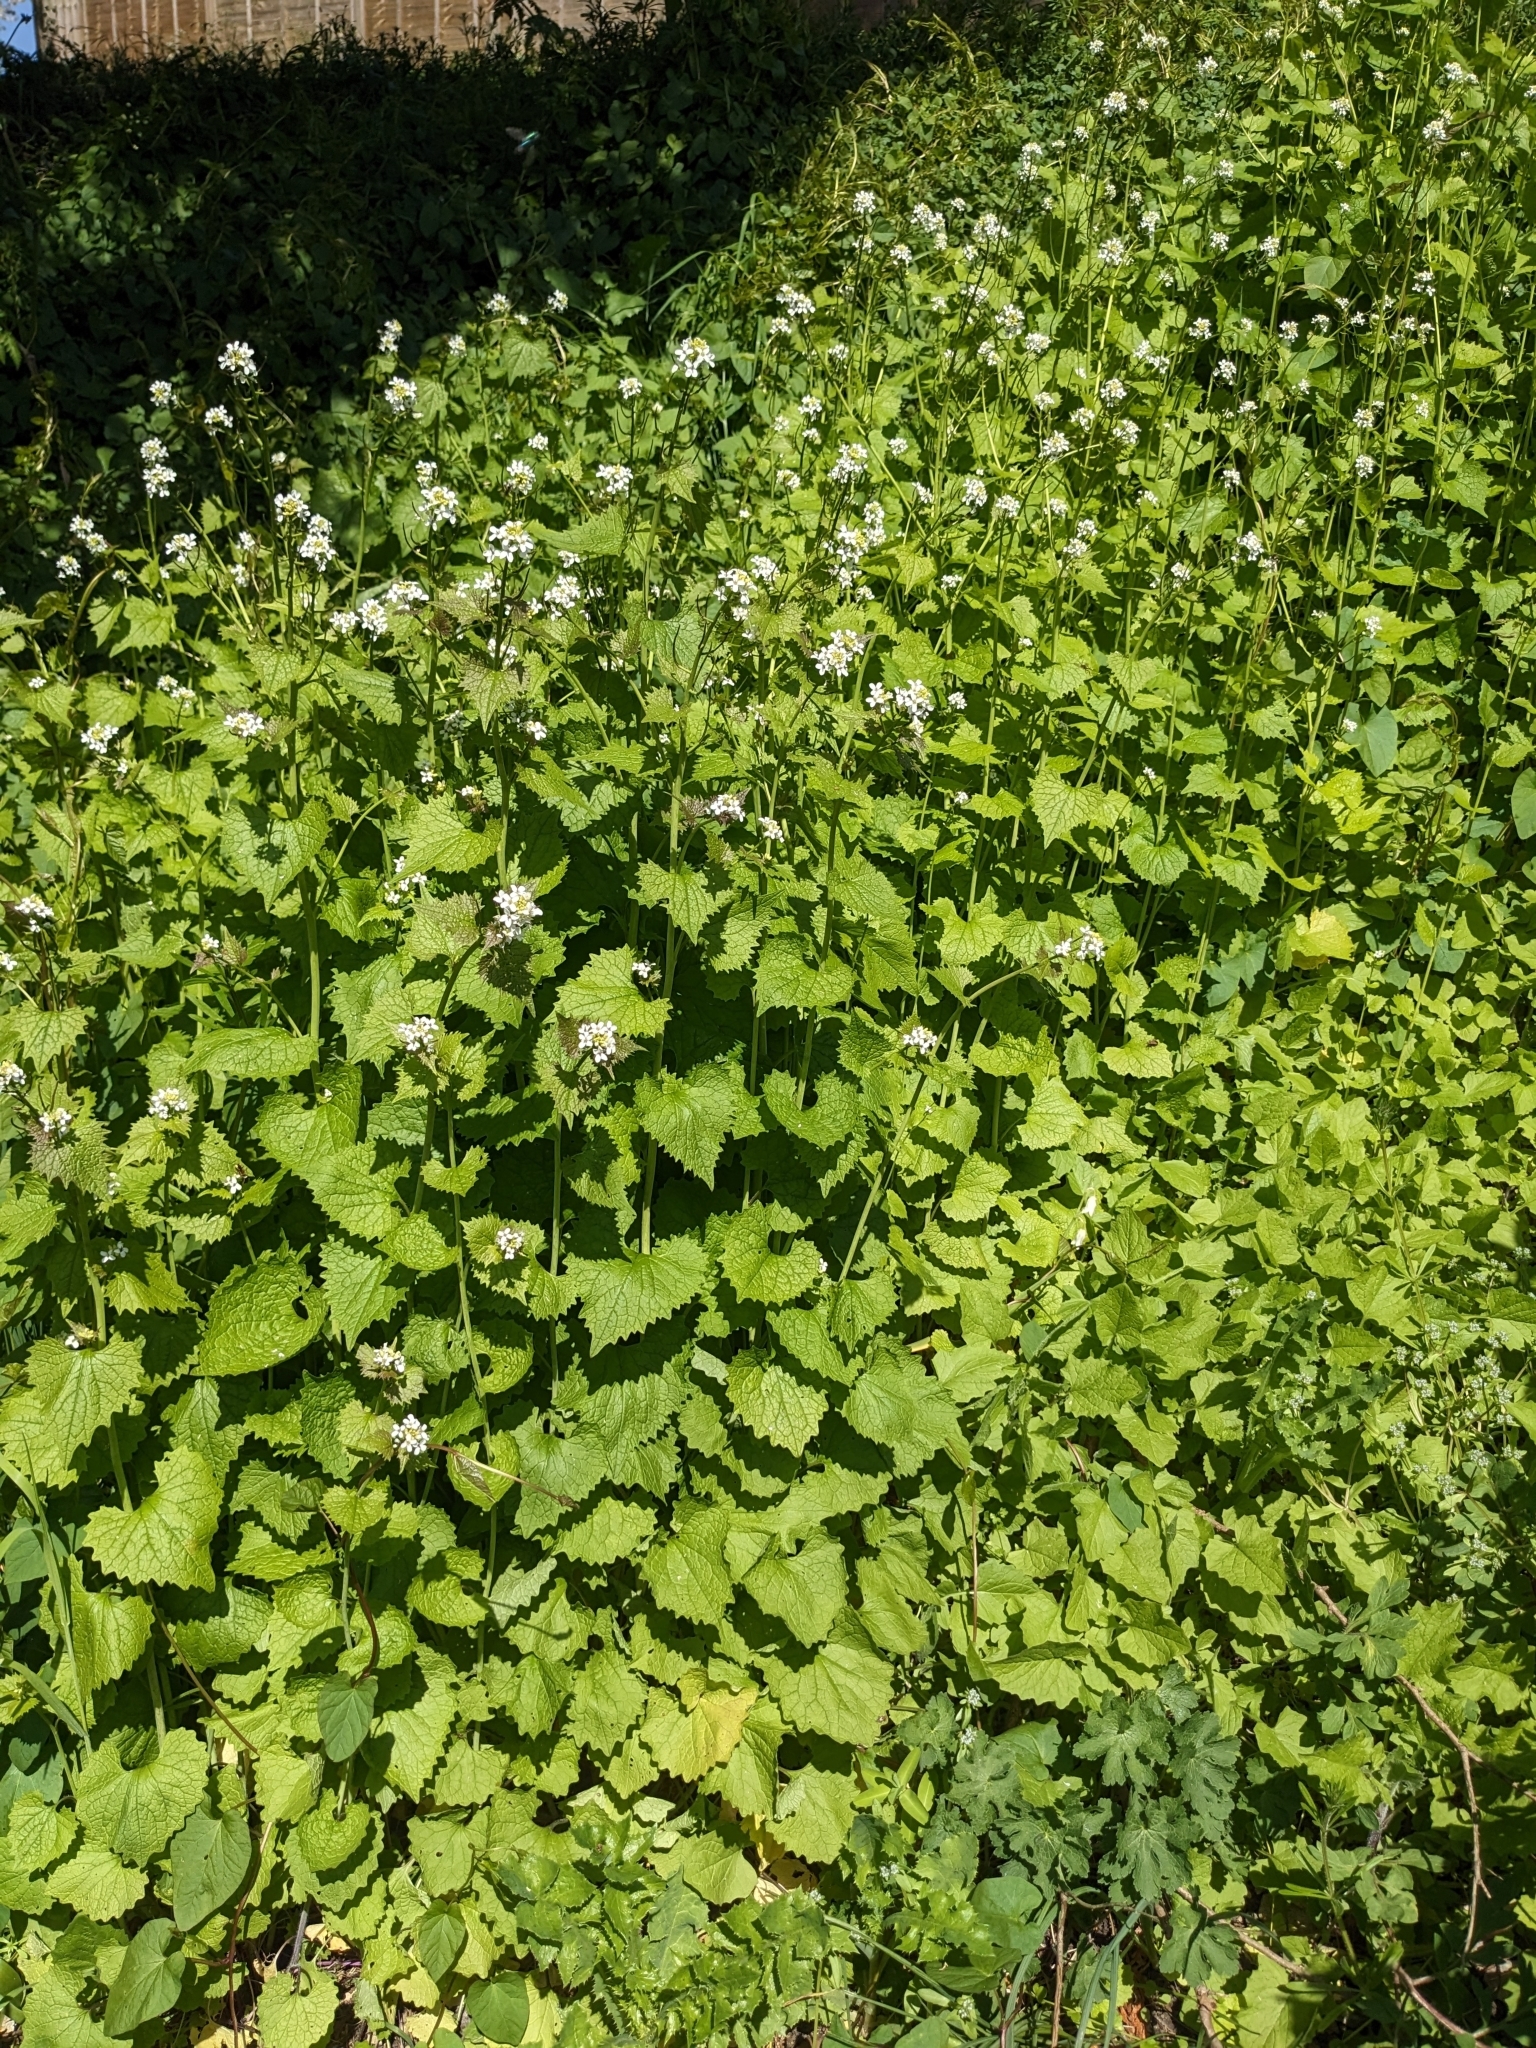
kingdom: Plantae
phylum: Tracheophyta
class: Magnoliopsida
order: Brassicales
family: Brassicaceae
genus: Alliaria
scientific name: Alliaria petiolata
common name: Garlic mustard
